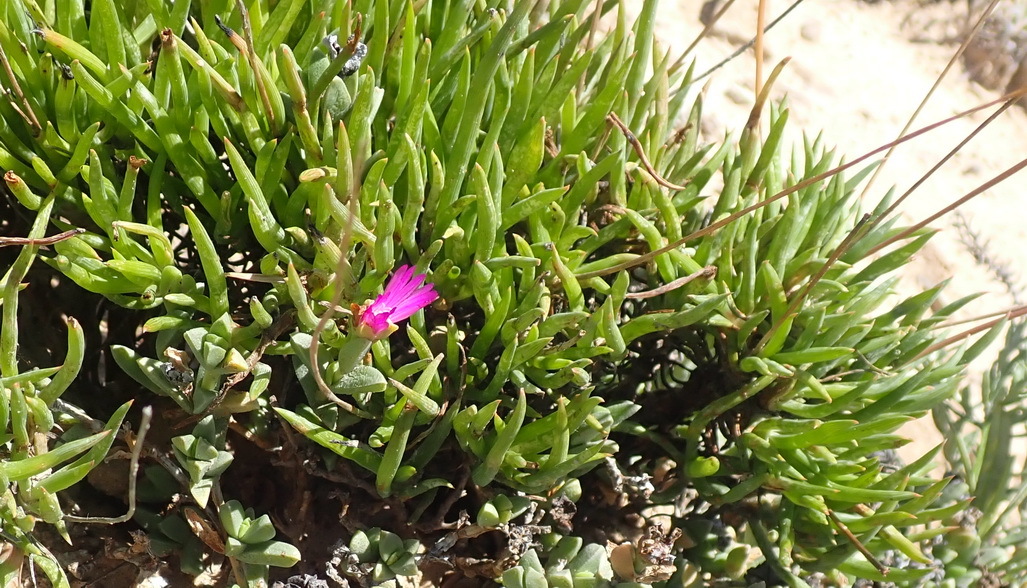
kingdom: Plantae
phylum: Tracheophyta
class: Liliopsida
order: Asparagales
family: Asphodelaceae
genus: Bulbine
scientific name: Bulbine lagopus
